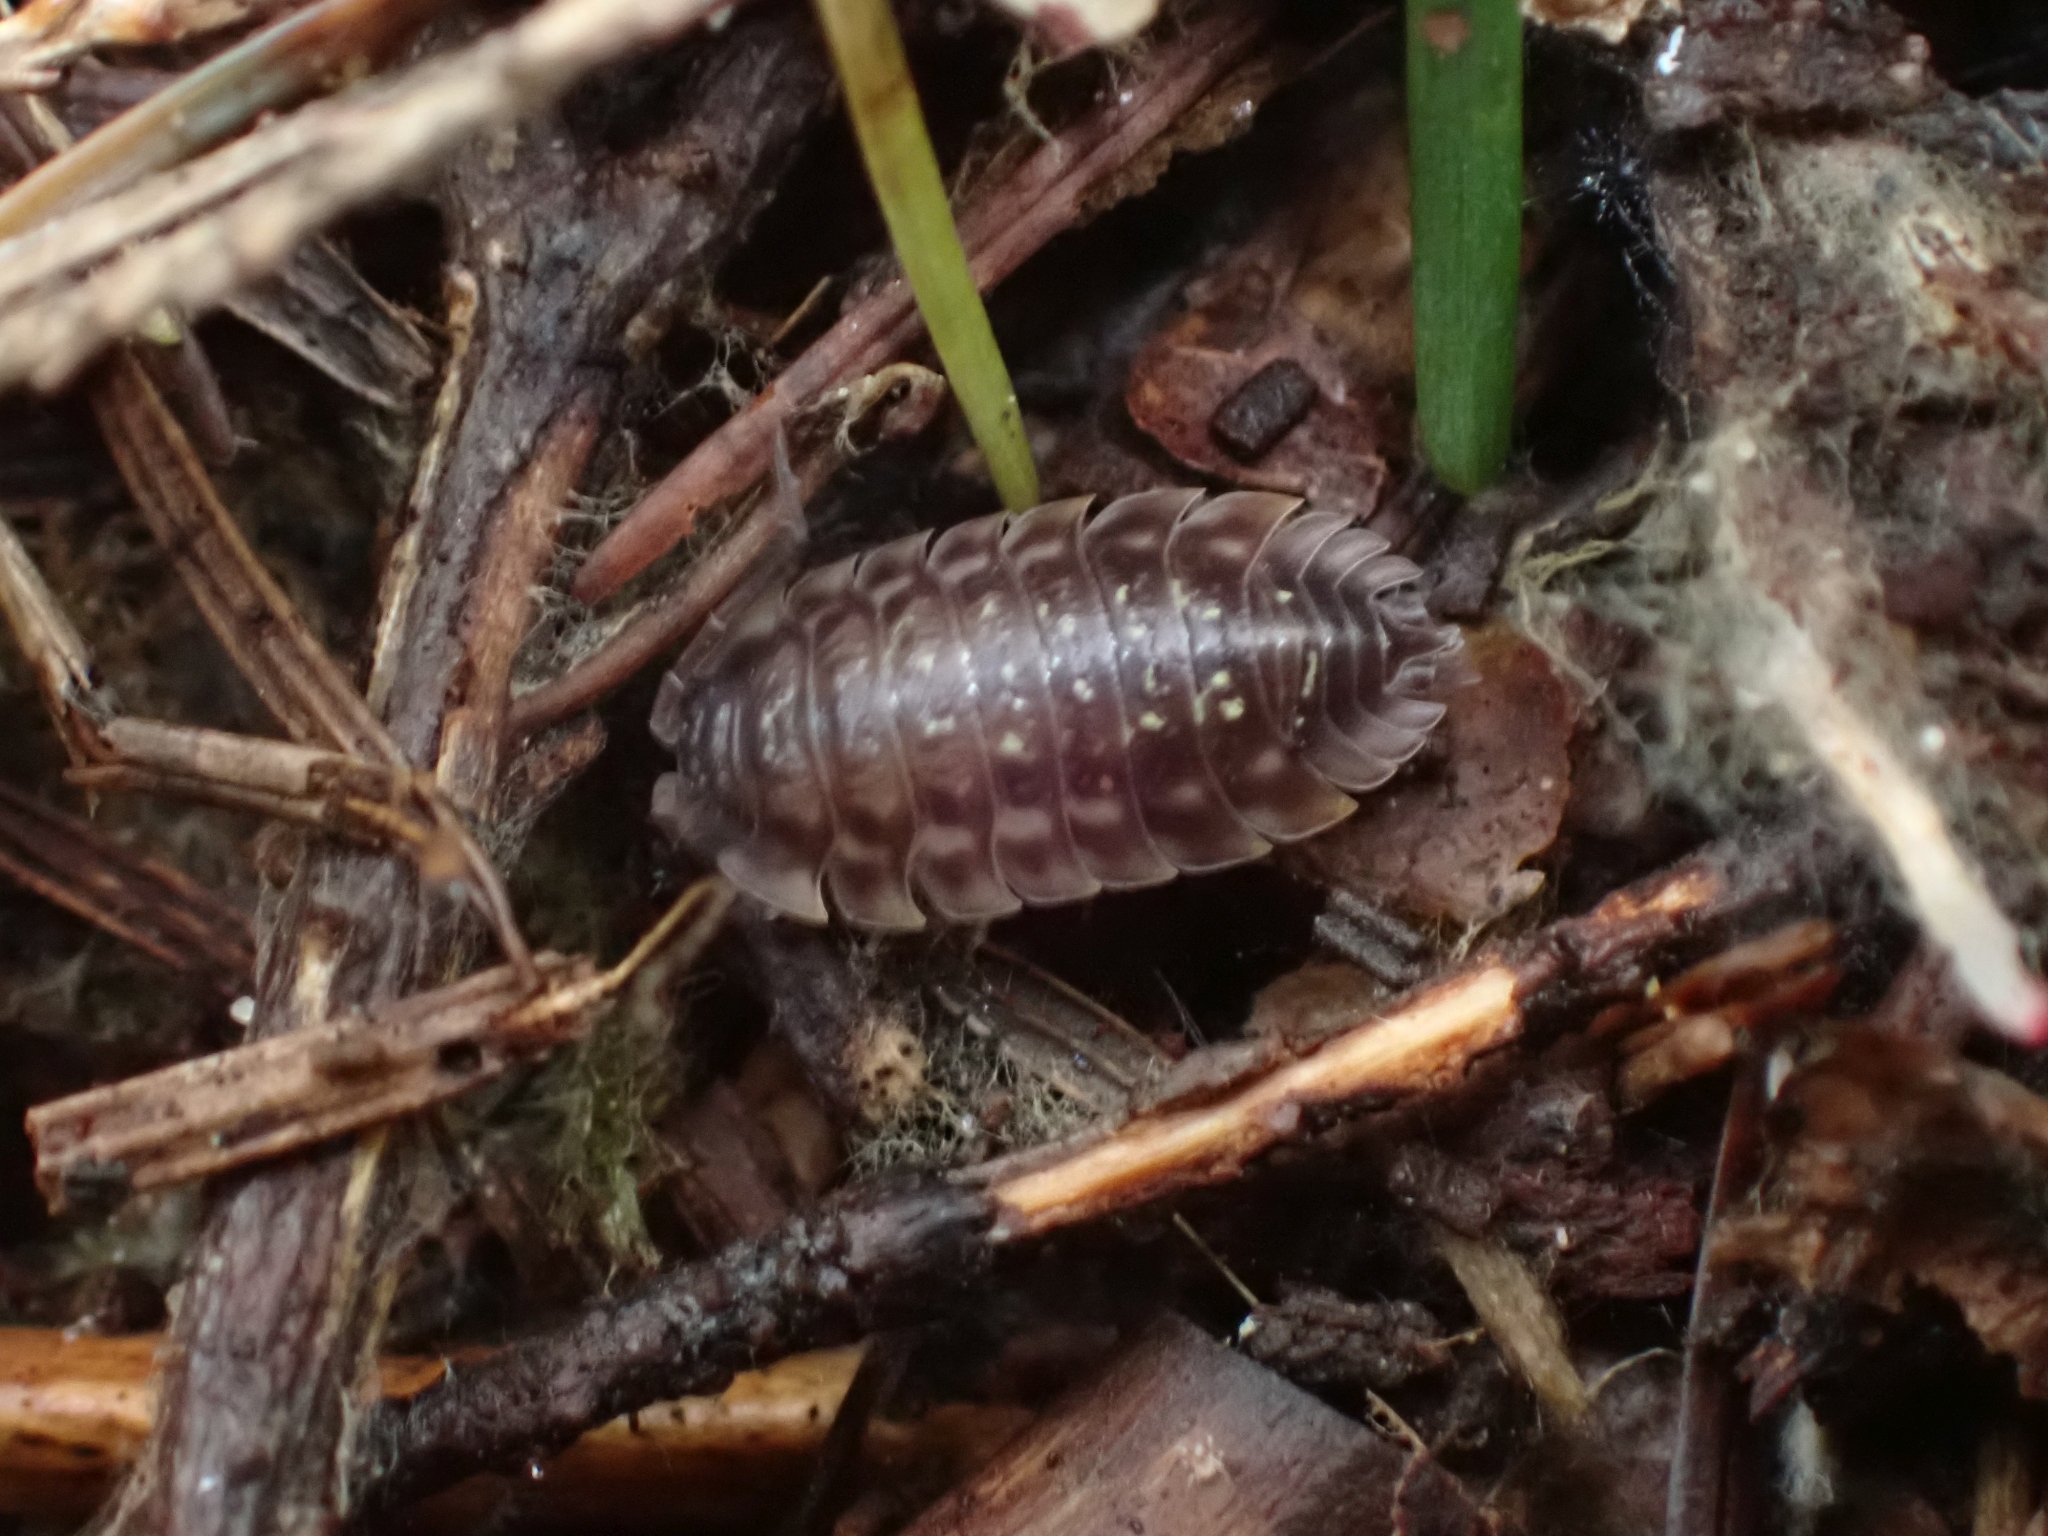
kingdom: Animalia
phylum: Arthropoda
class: Malacostraca
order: Isopoda
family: Oniscidae
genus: Oniscus
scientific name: Oniscus asellus
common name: Common shiny woodlouse
